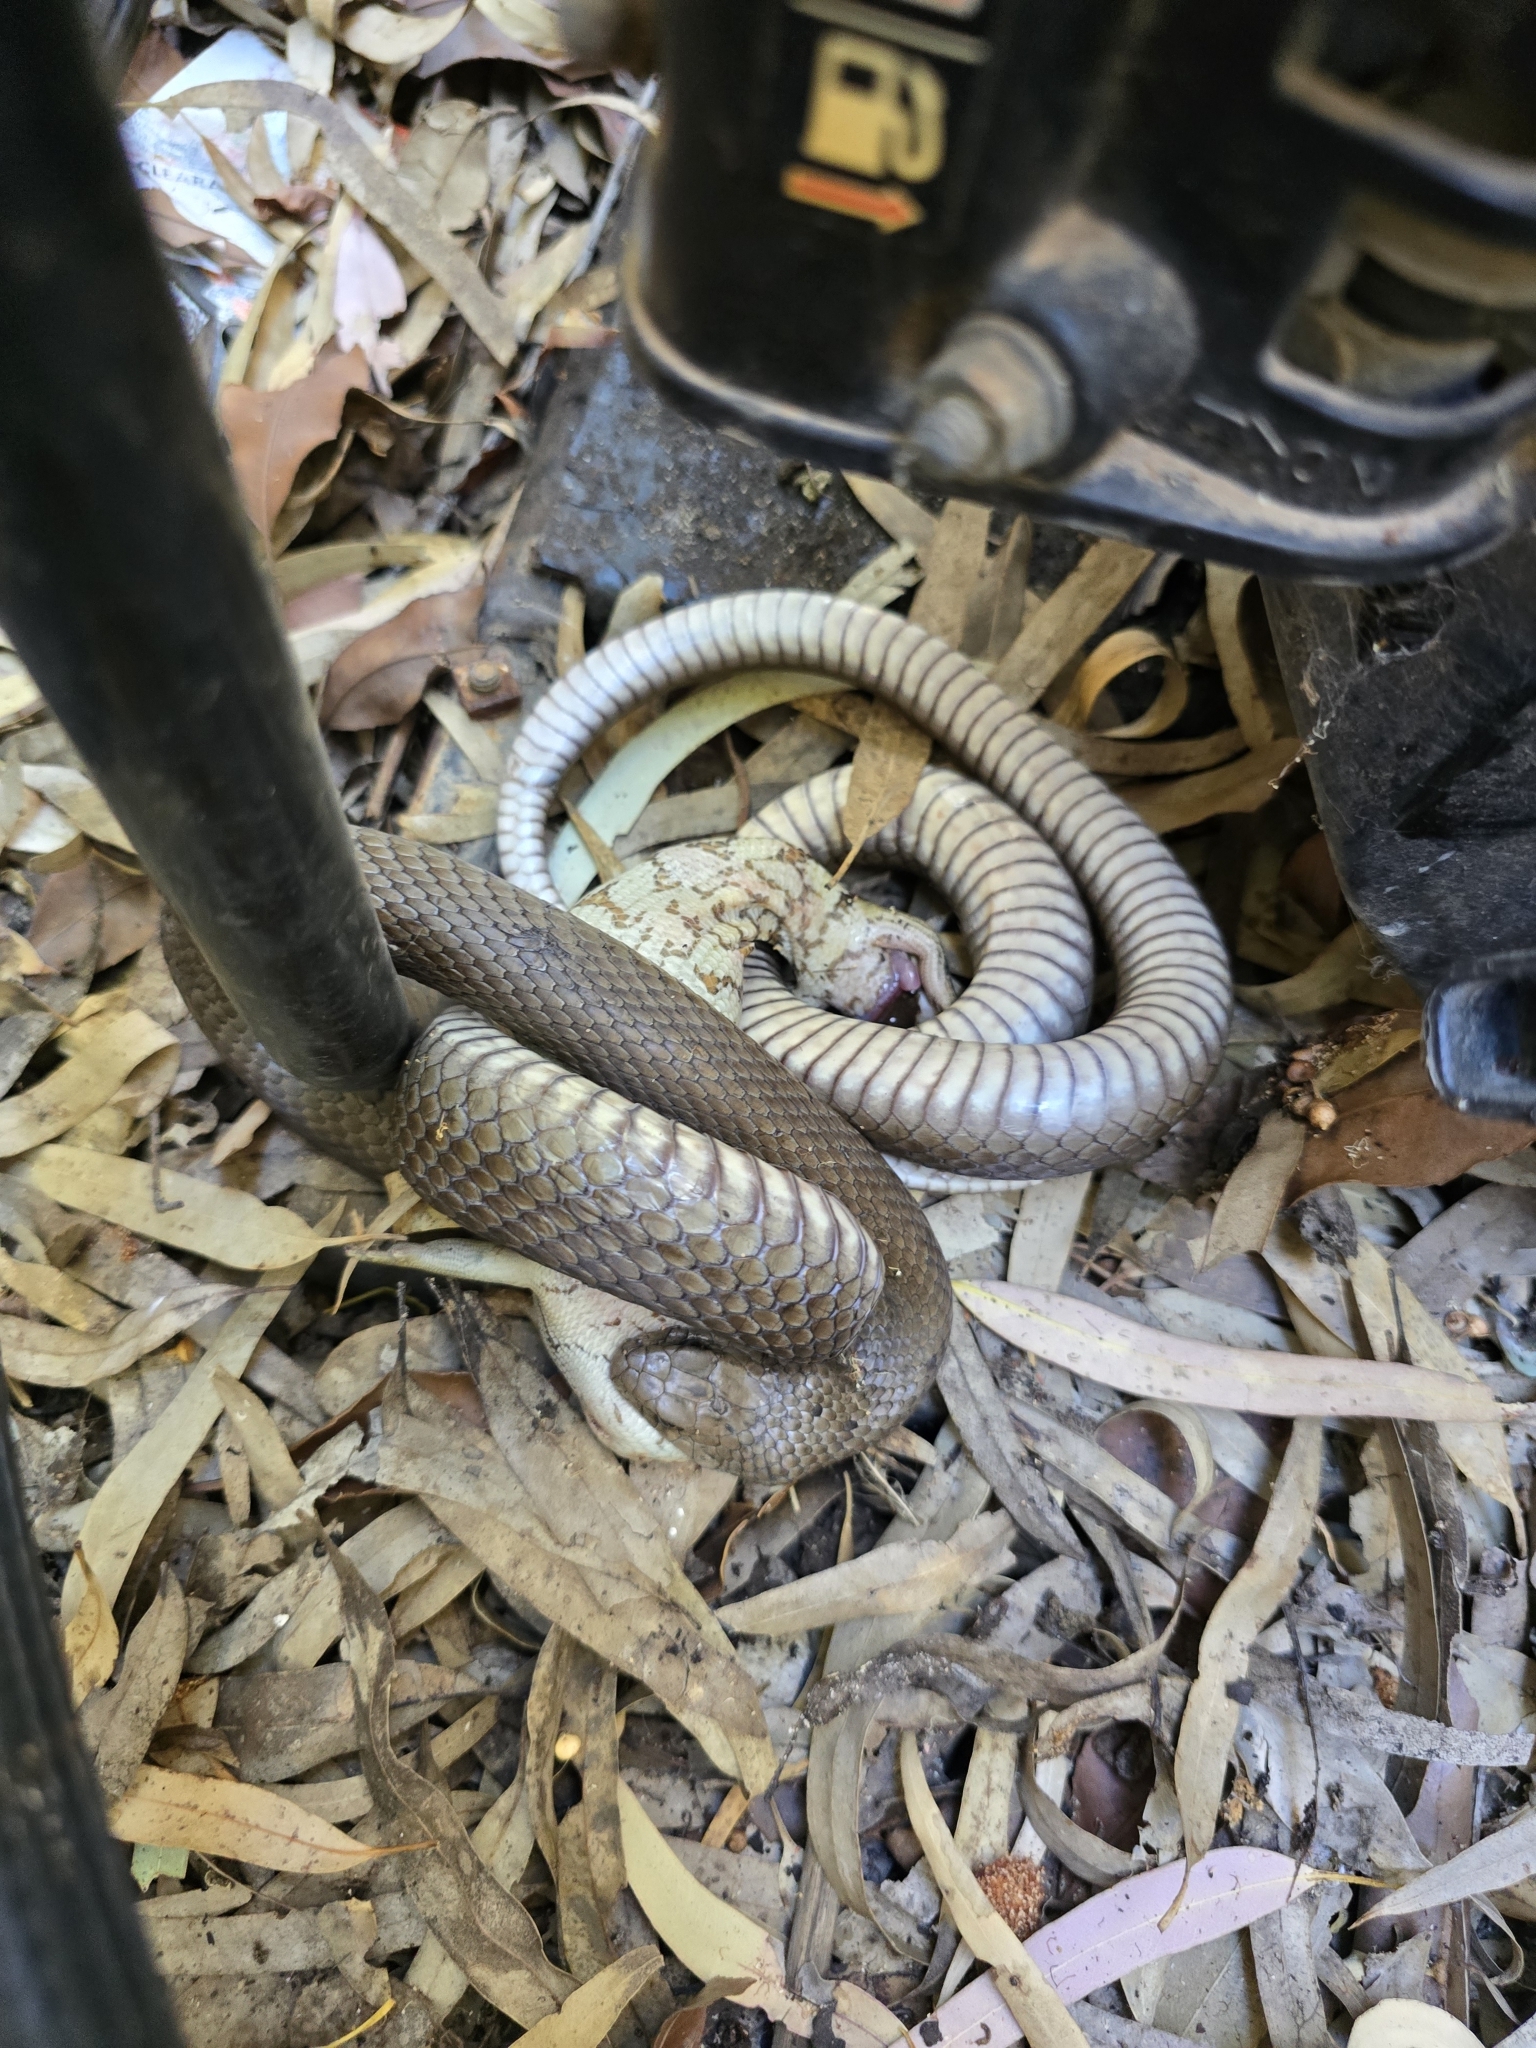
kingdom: Animalia
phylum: Chordata
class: Squamata
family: Scincidae
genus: Tiliqua
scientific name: Tiliqua scincoides
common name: Common bluetongue
